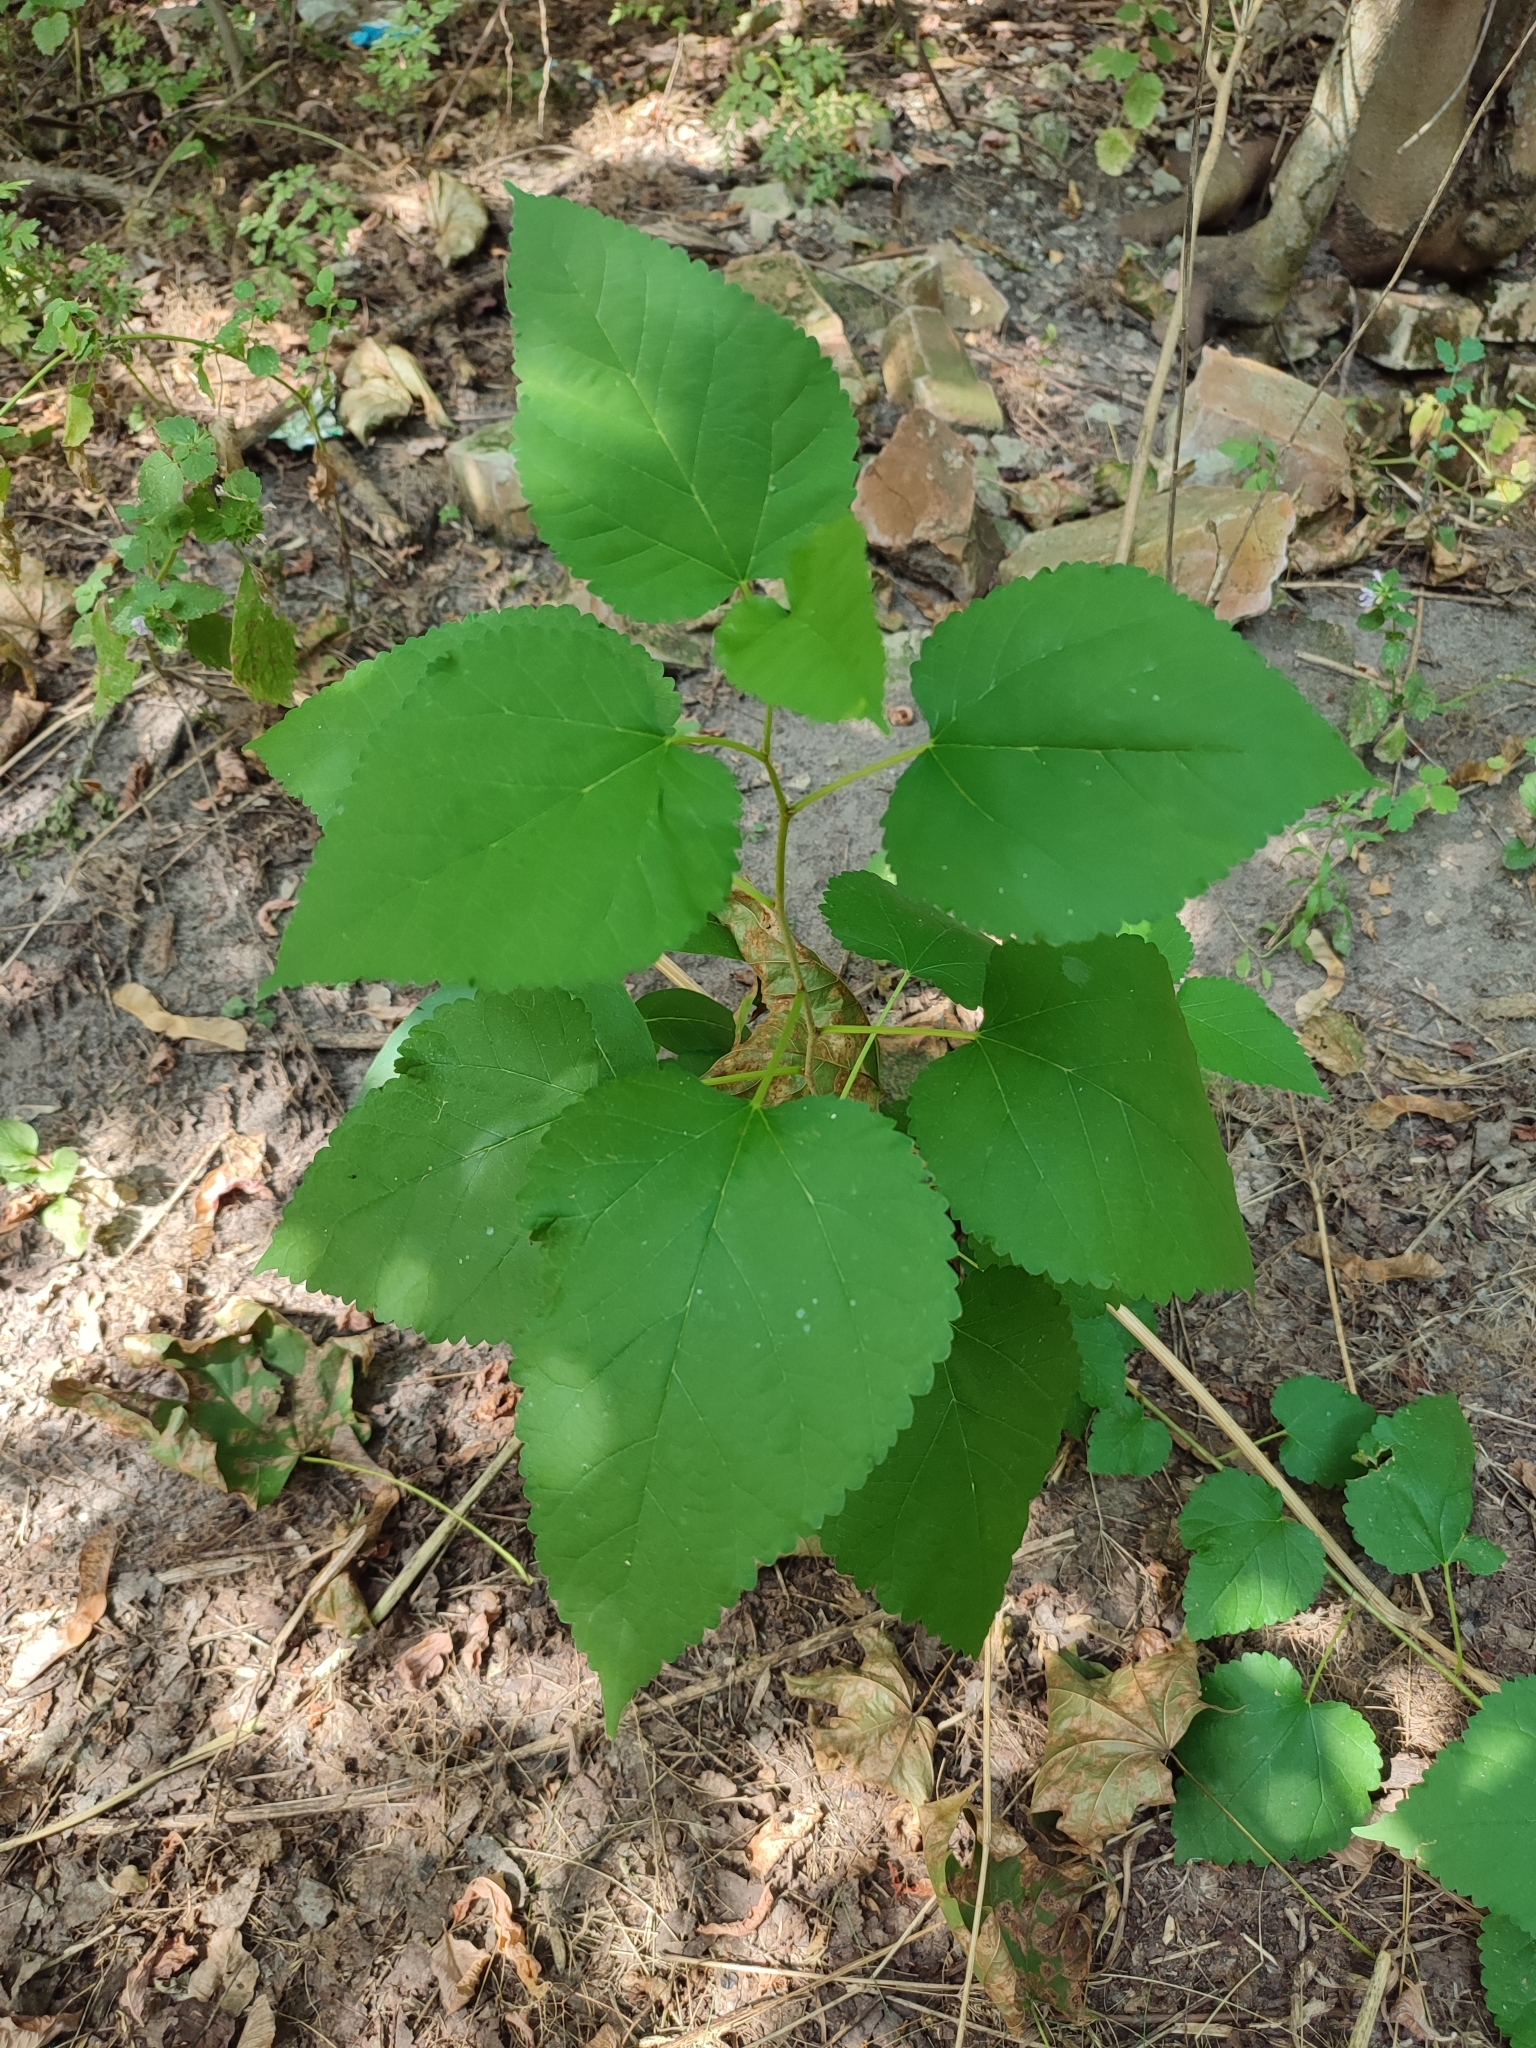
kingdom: Plantae
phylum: Tracheophyta
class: Magnoliopsida
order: Rosales
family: Moraceae
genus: Morus
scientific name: Morus alba
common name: White mulberry
